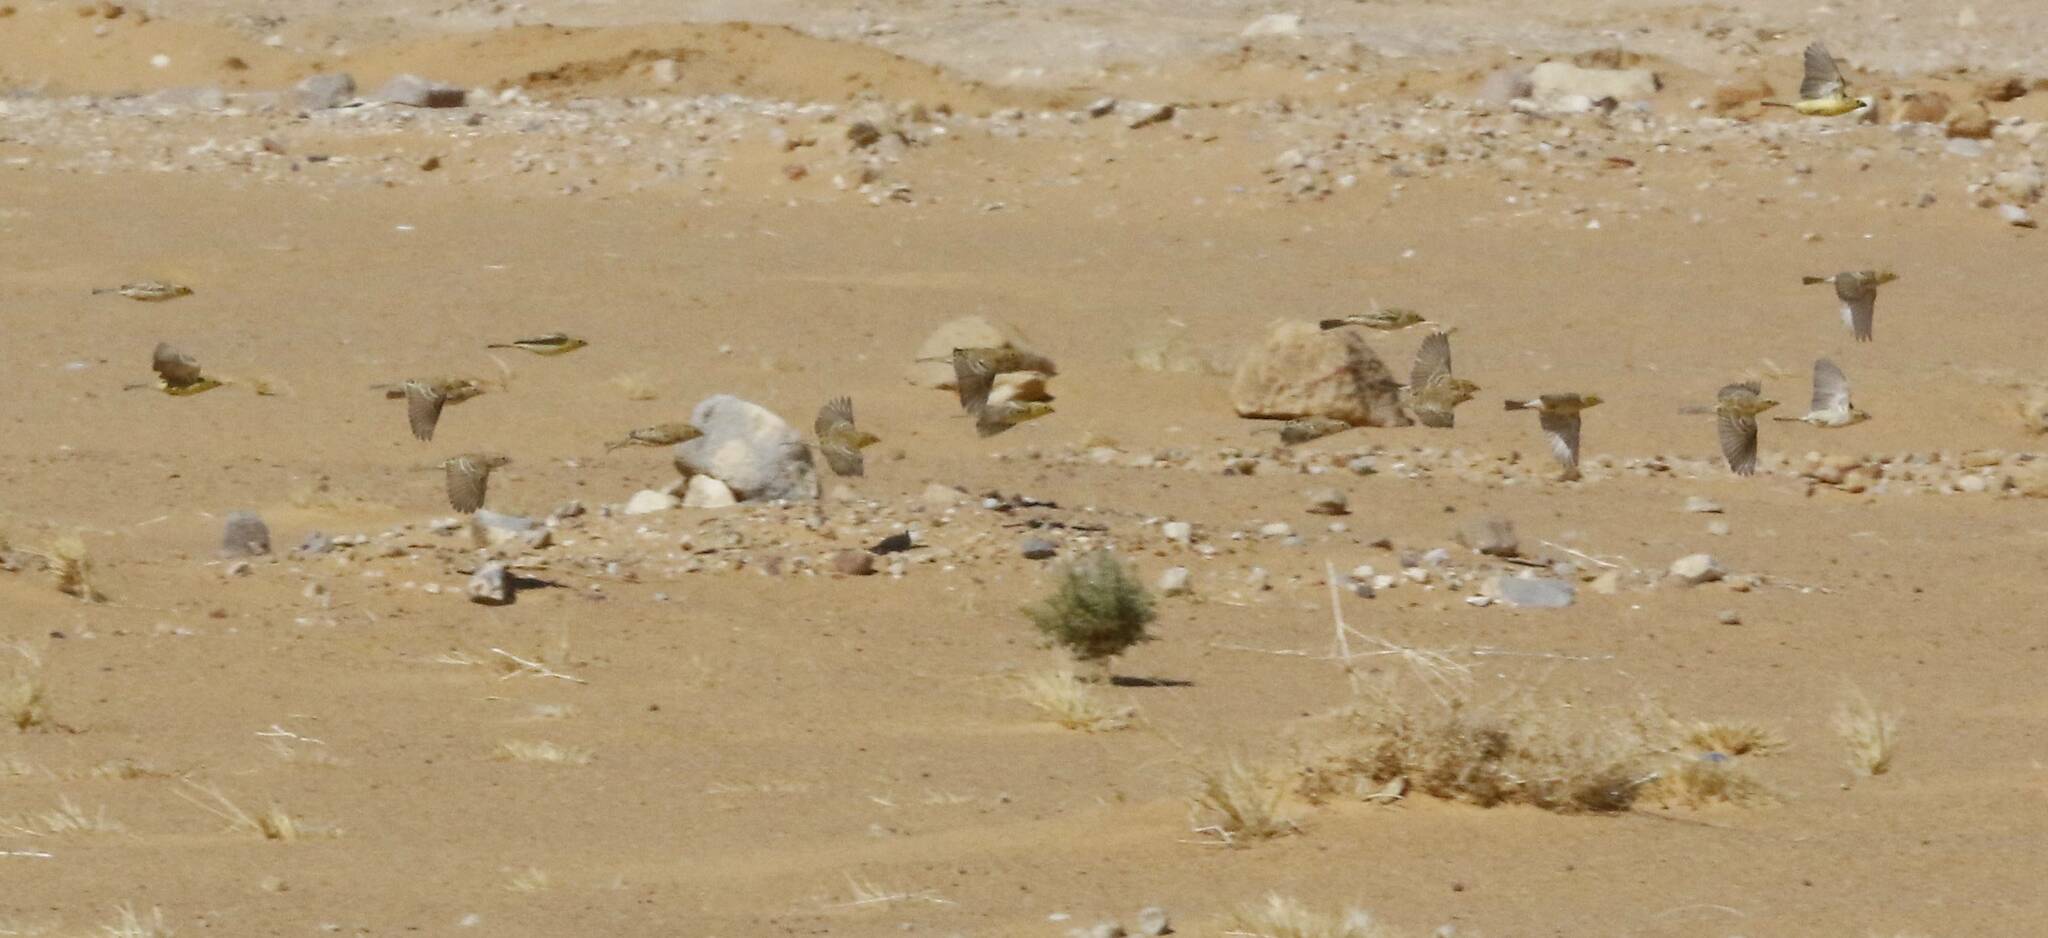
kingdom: Animalia
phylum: Chordata
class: Aves
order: Passeriformes
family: Passeridae
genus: Passer
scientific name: Passer luteus
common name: Sudan golden sparrow
